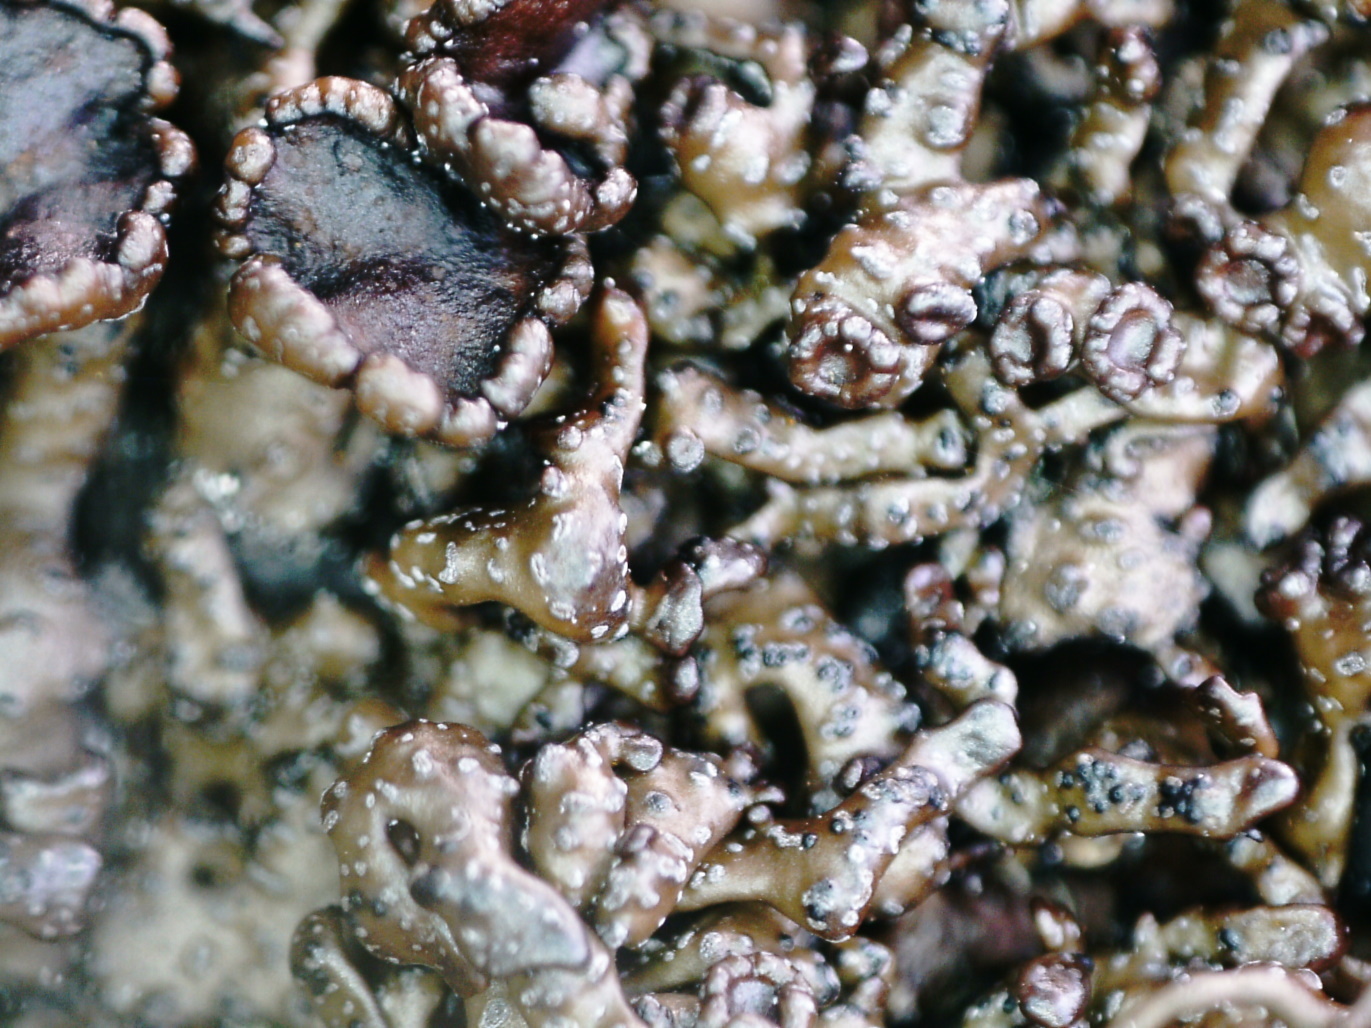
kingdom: Fungi
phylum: Ascomycota
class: Lecanoromycetes
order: Lecanorales
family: Parmeliaceae
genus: Melanelia
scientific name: Melanelia stygia
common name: Alpine camouflage lichen
